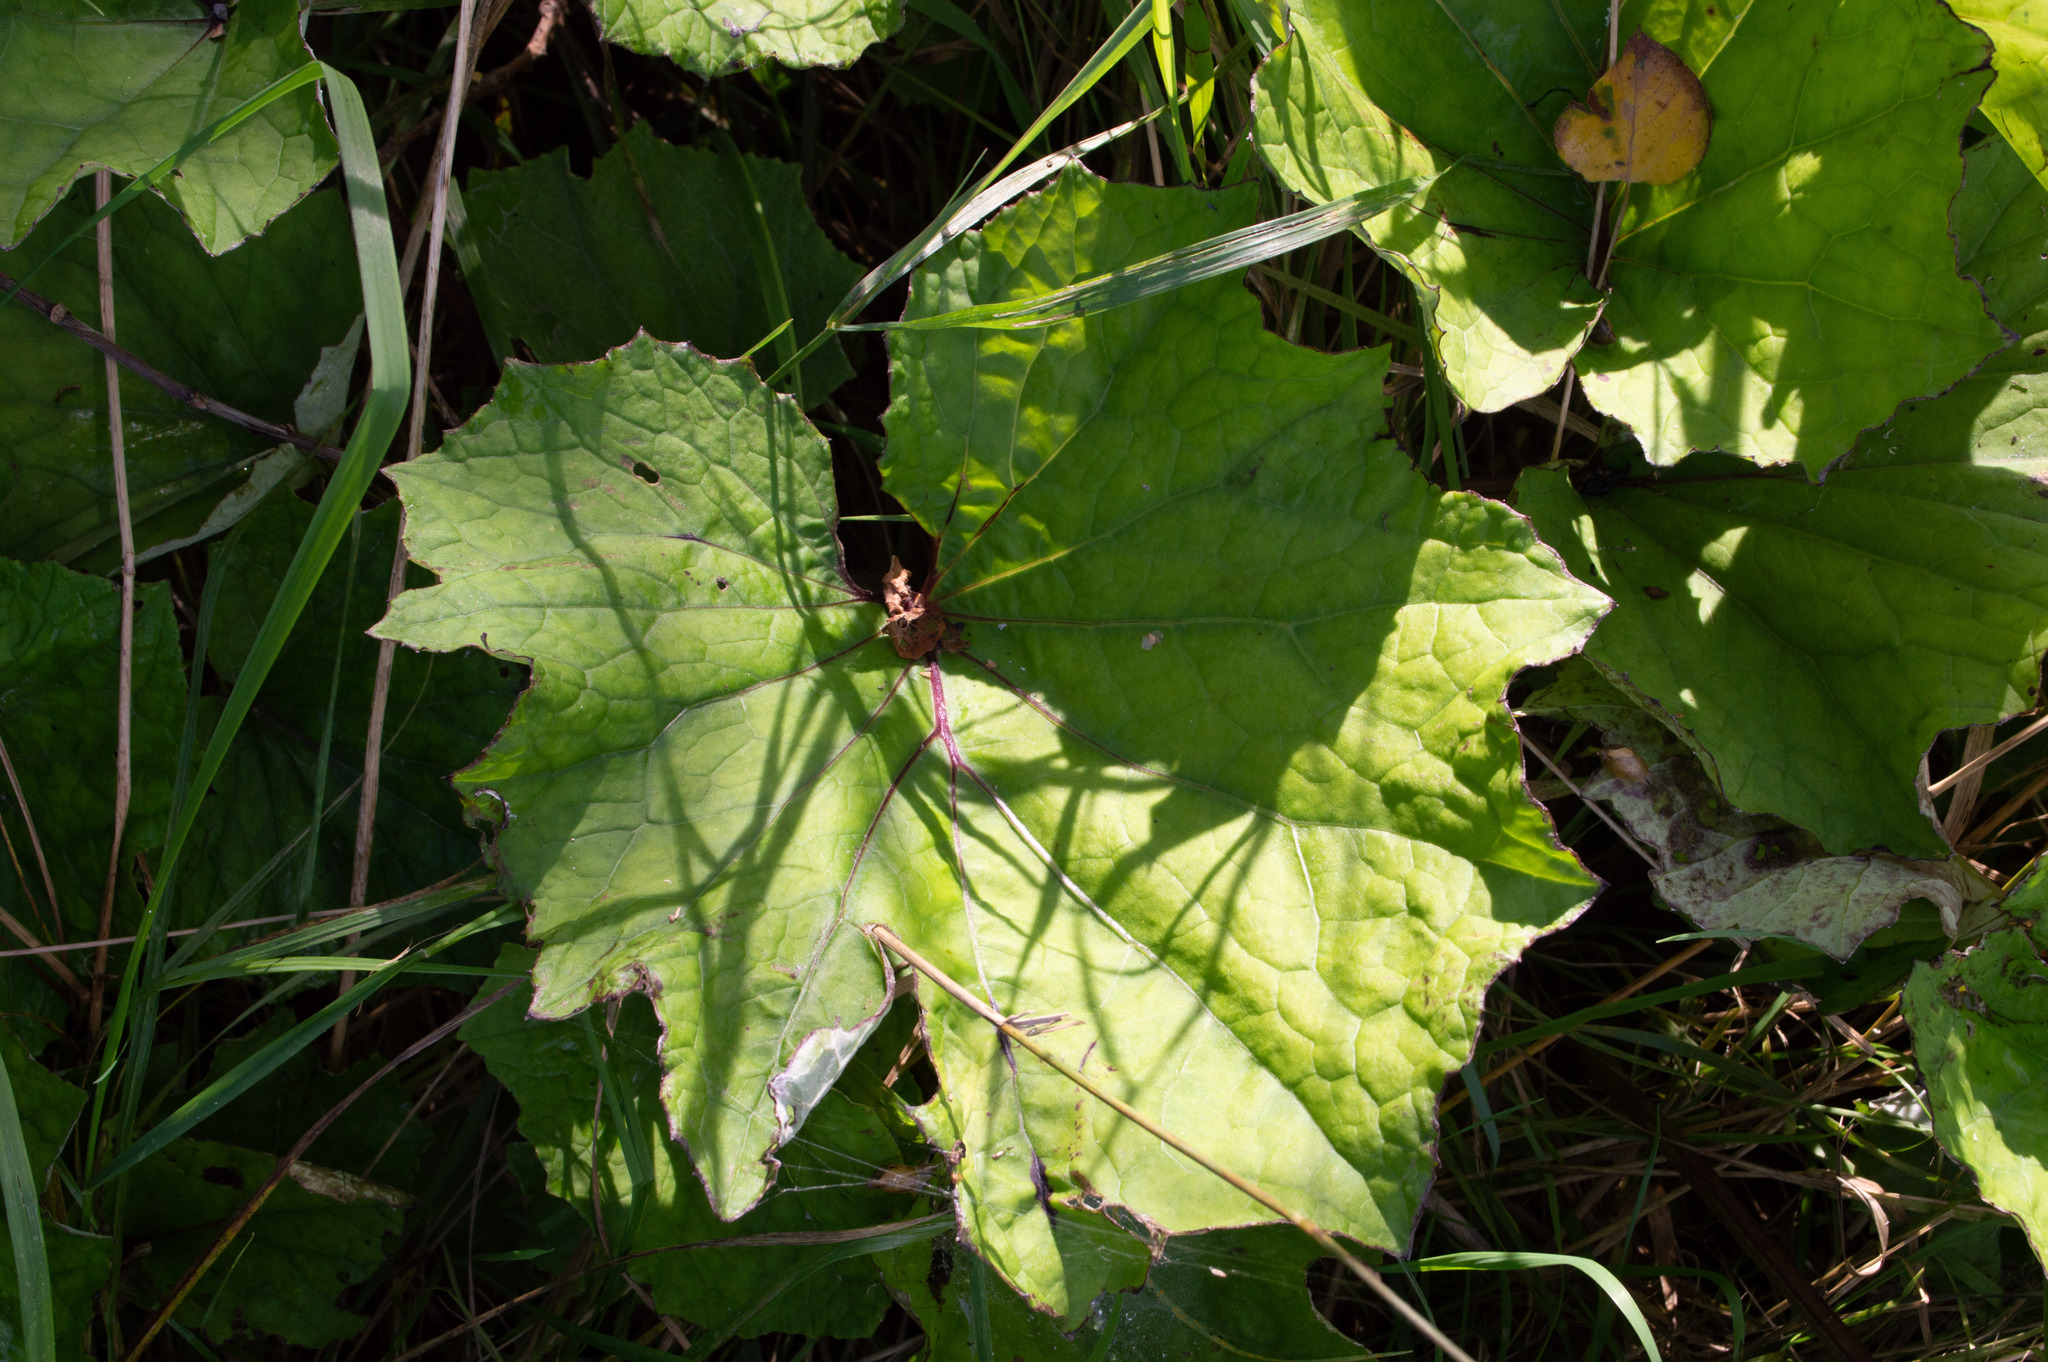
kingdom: Plantae
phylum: Tracheophyta
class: Magnoliopsida
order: Asterales
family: Asteraceae
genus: Tussilago
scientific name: Tussilago farfara
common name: Coltsfoot
